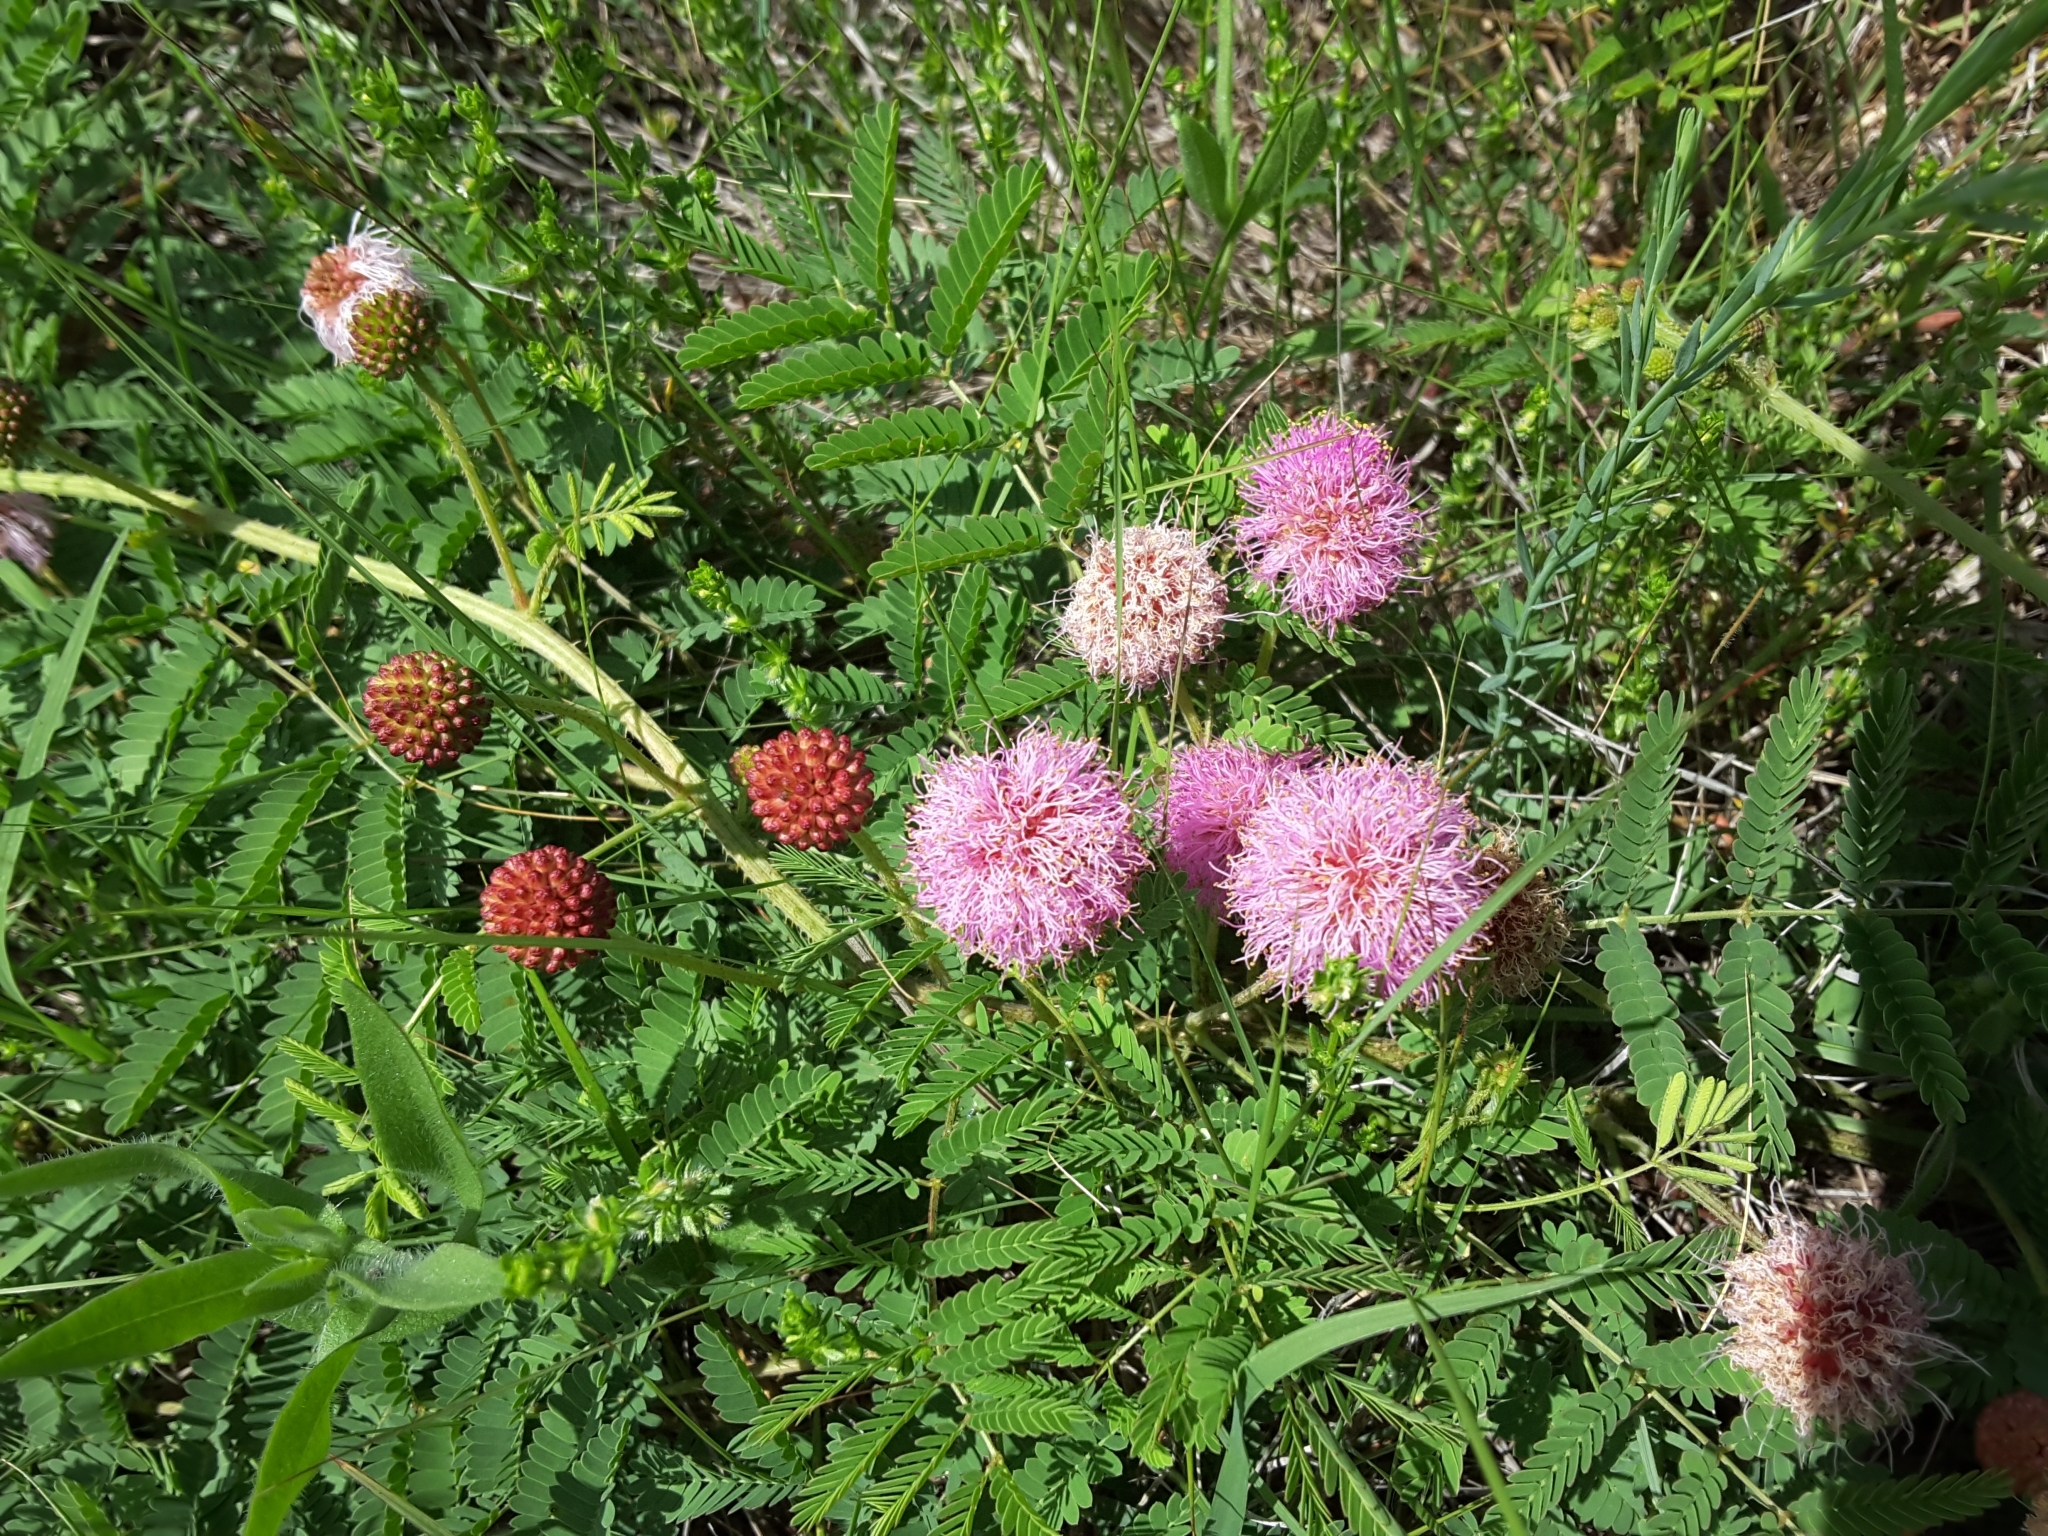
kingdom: Plantae
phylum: Tracheophyta
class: Magnoliopsida
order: Fabales
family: Fabaceae
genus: Mimosa
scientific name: Mimosa quadrivalvis
